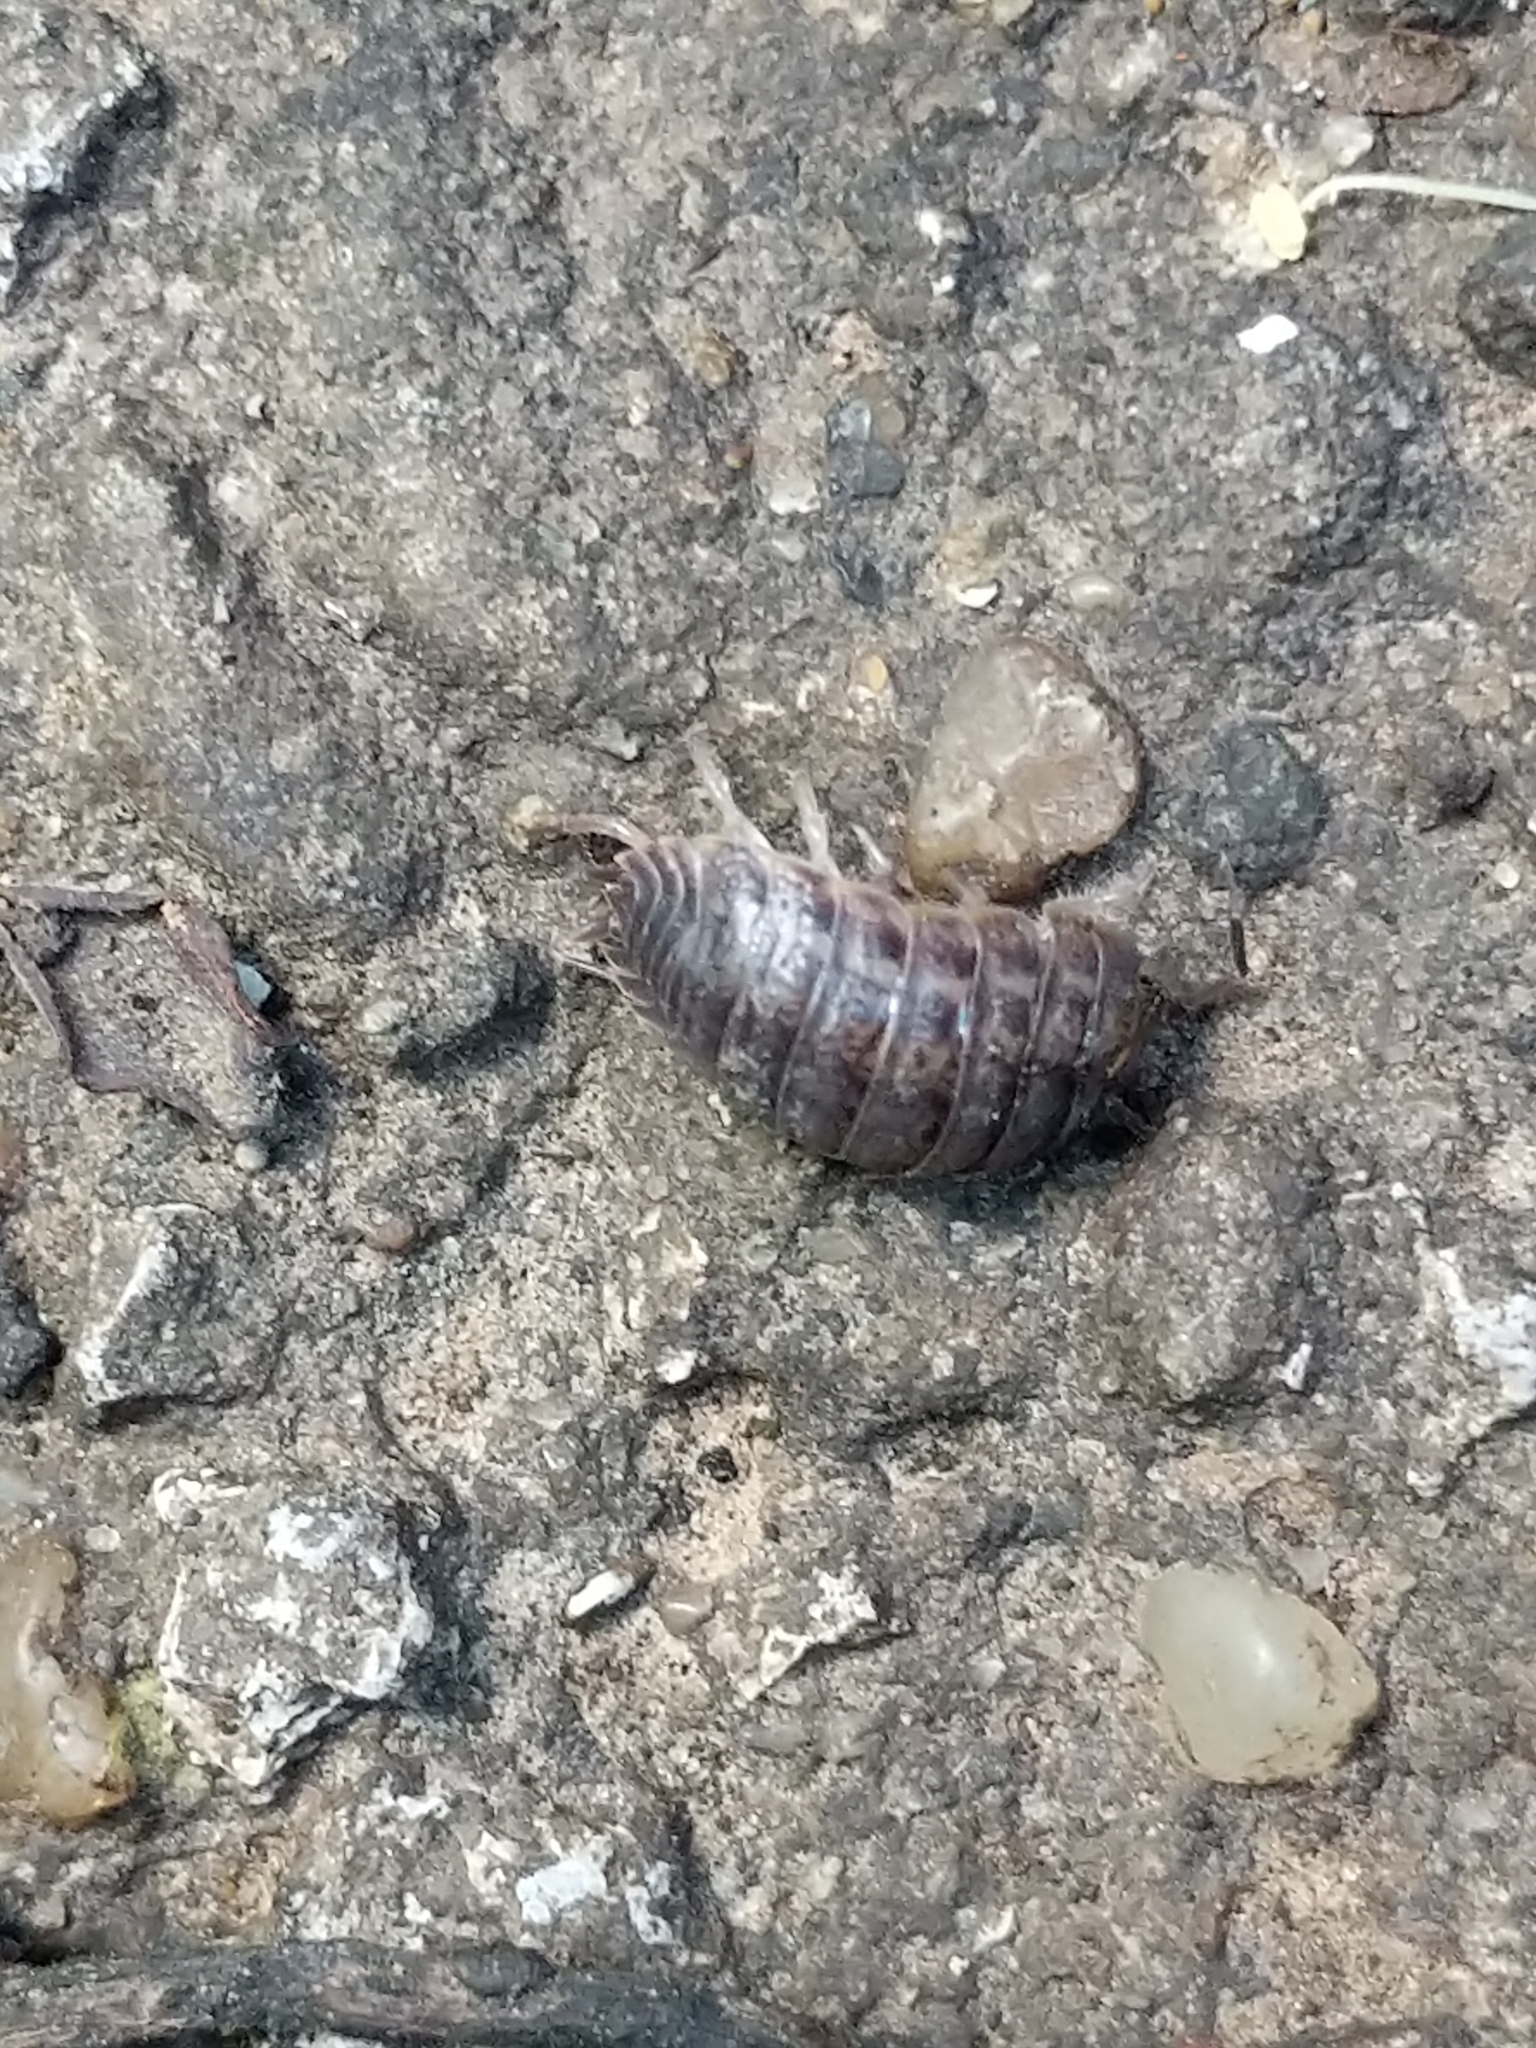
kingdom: Animalia
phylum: Arthropoda
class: Malacostraca
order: Isopoda
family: Trachelipodidae
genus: Trachelipus
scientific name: Trachelipus rathkii
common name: Isopod
